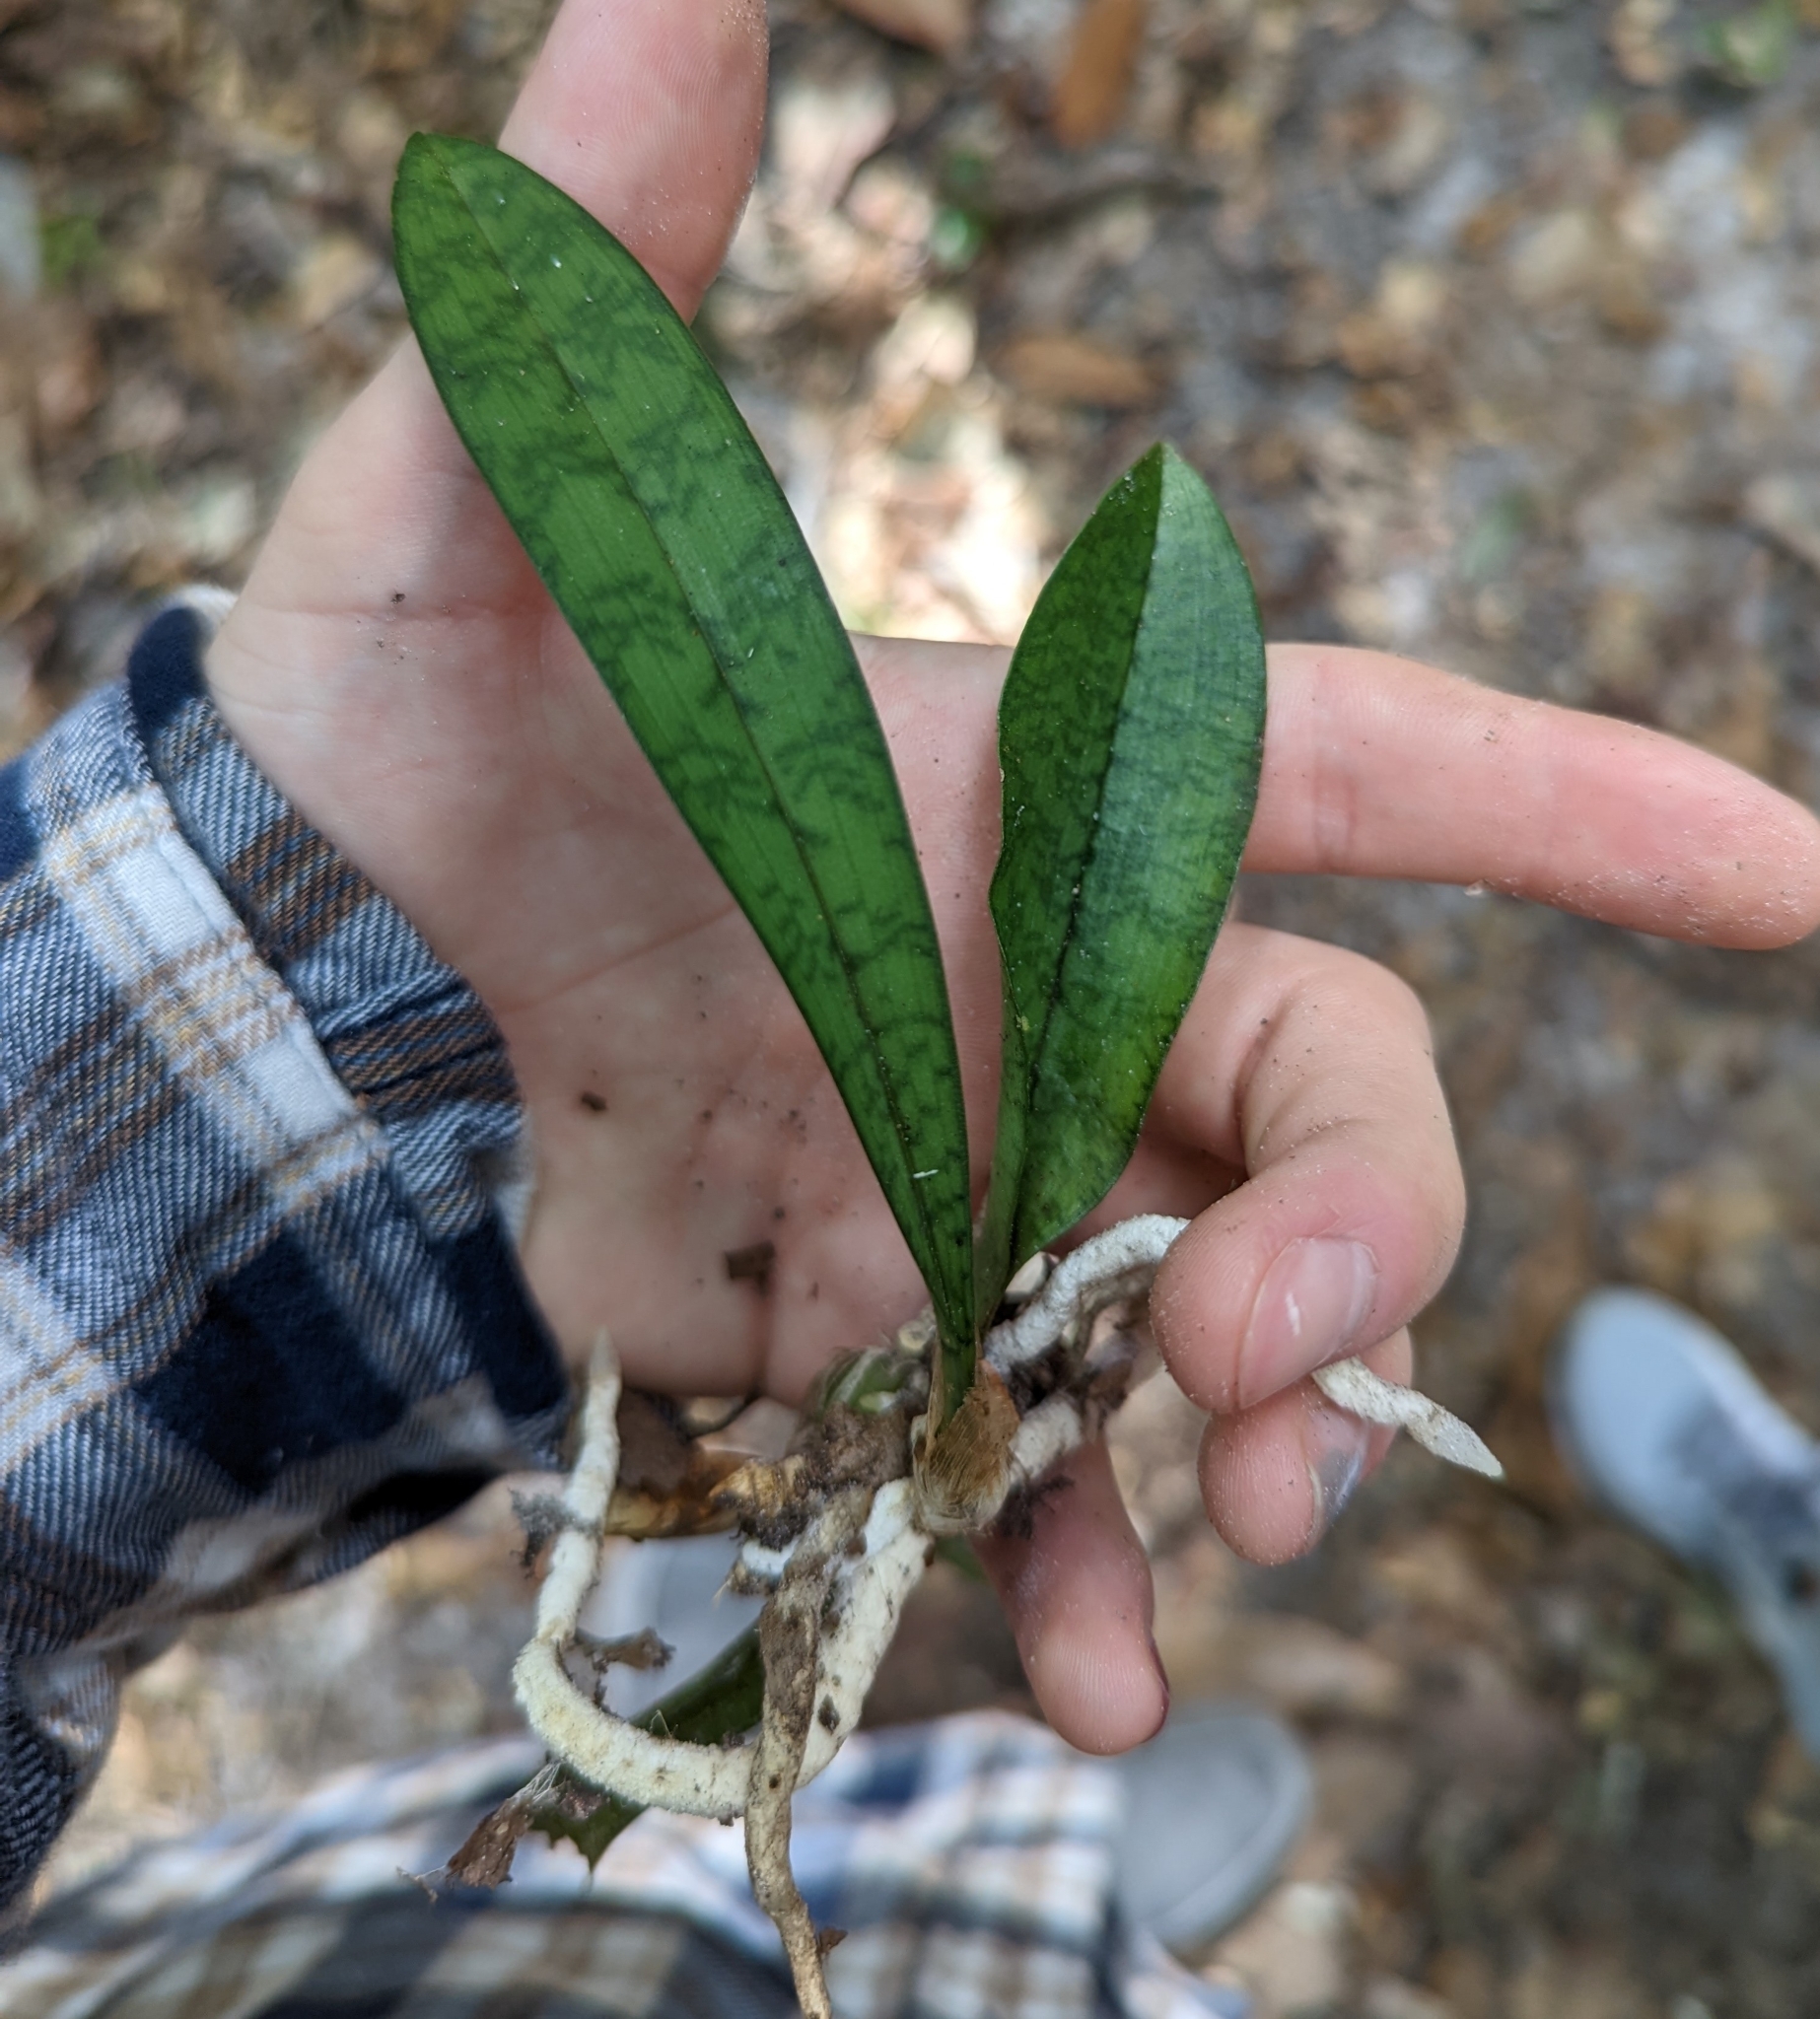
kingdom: Plantae
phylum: Tracheophyta
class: Liliopsida
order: Asparagales
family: Orchidaceae
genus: Eulophia
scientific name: Eulophia maculata
